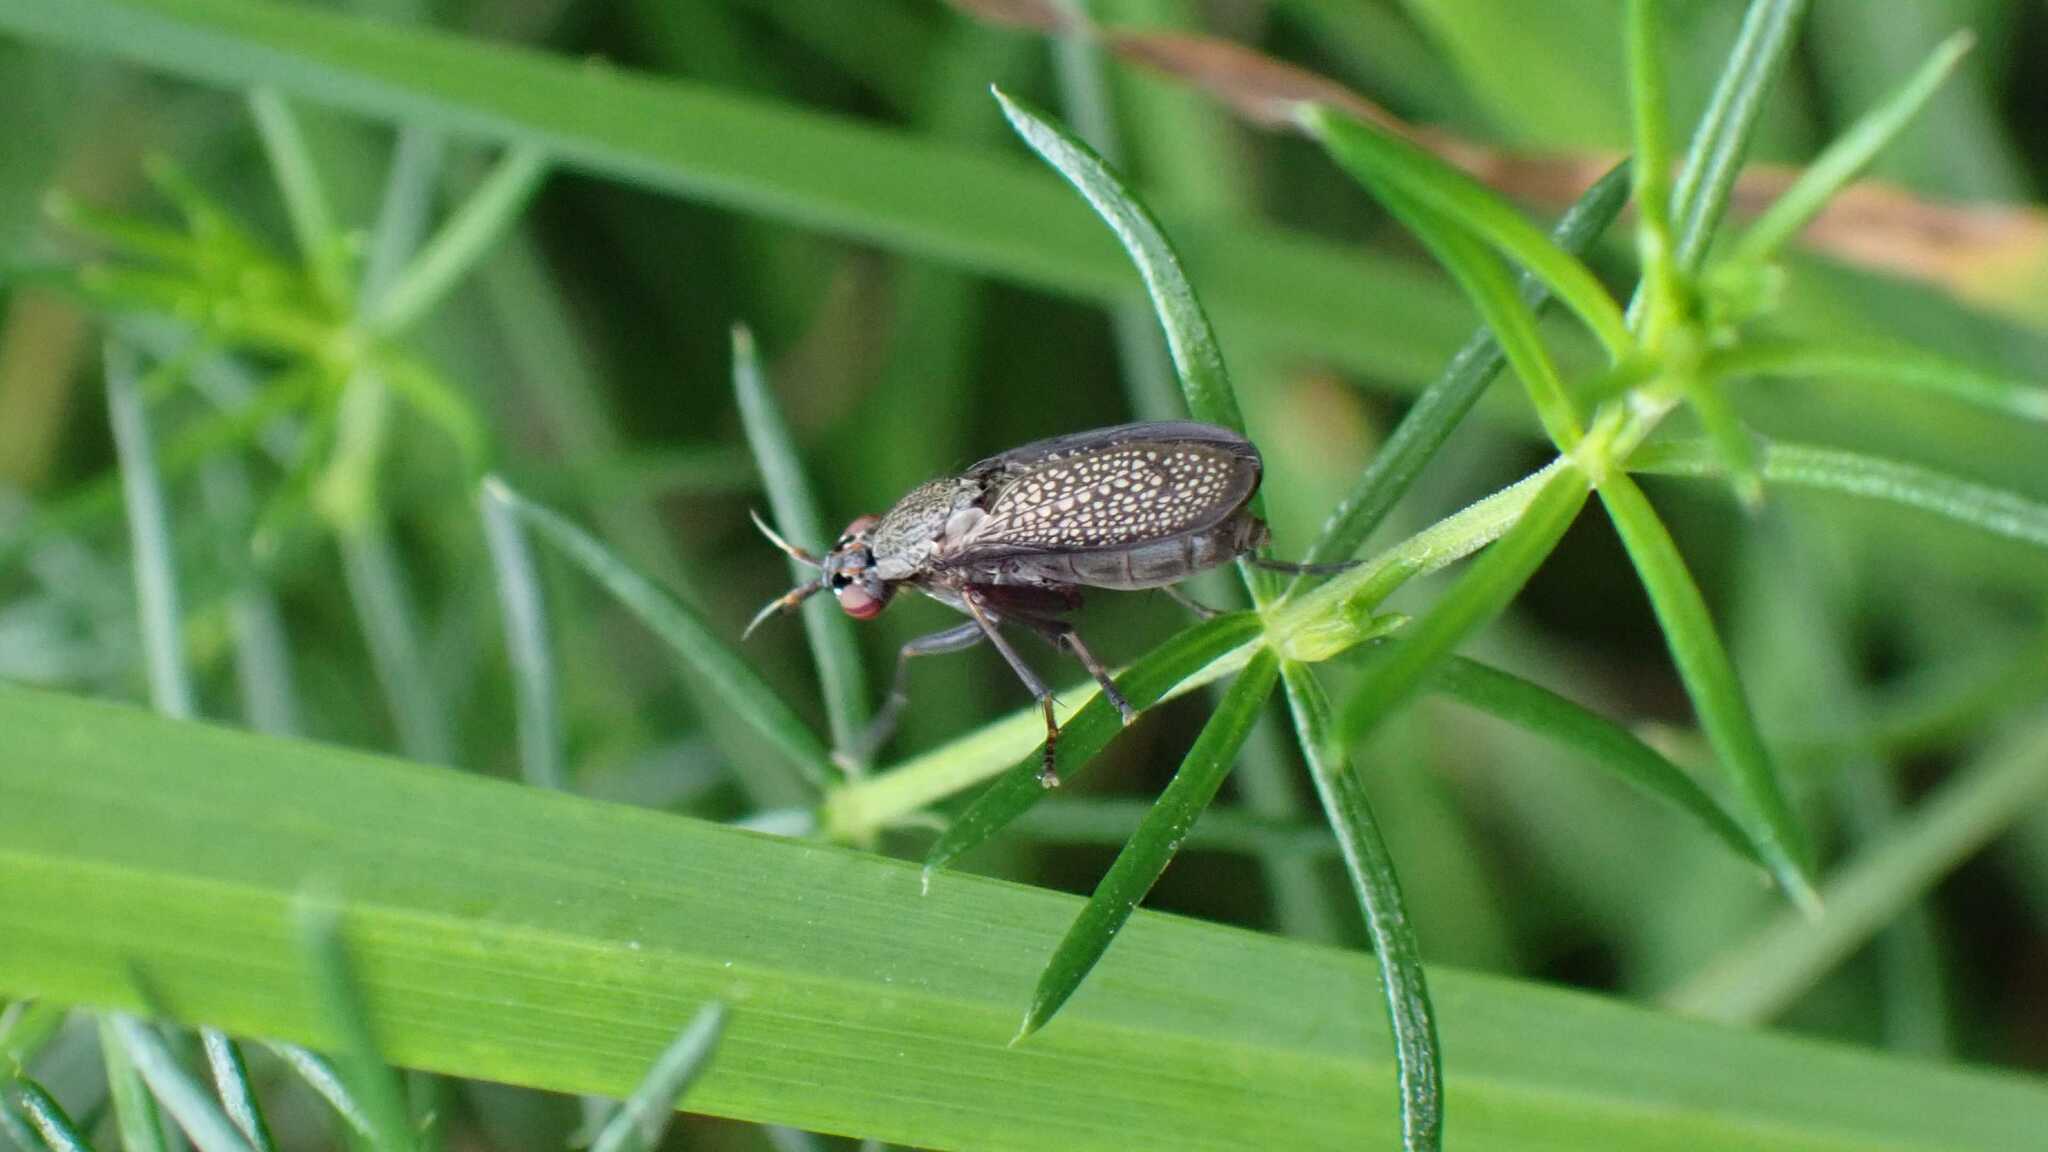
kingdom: Animalia
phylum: Arthropoda
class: Insecta
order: Diptera
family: Sciomyzidae
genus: Coremacera
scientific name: Coremacera marginata
